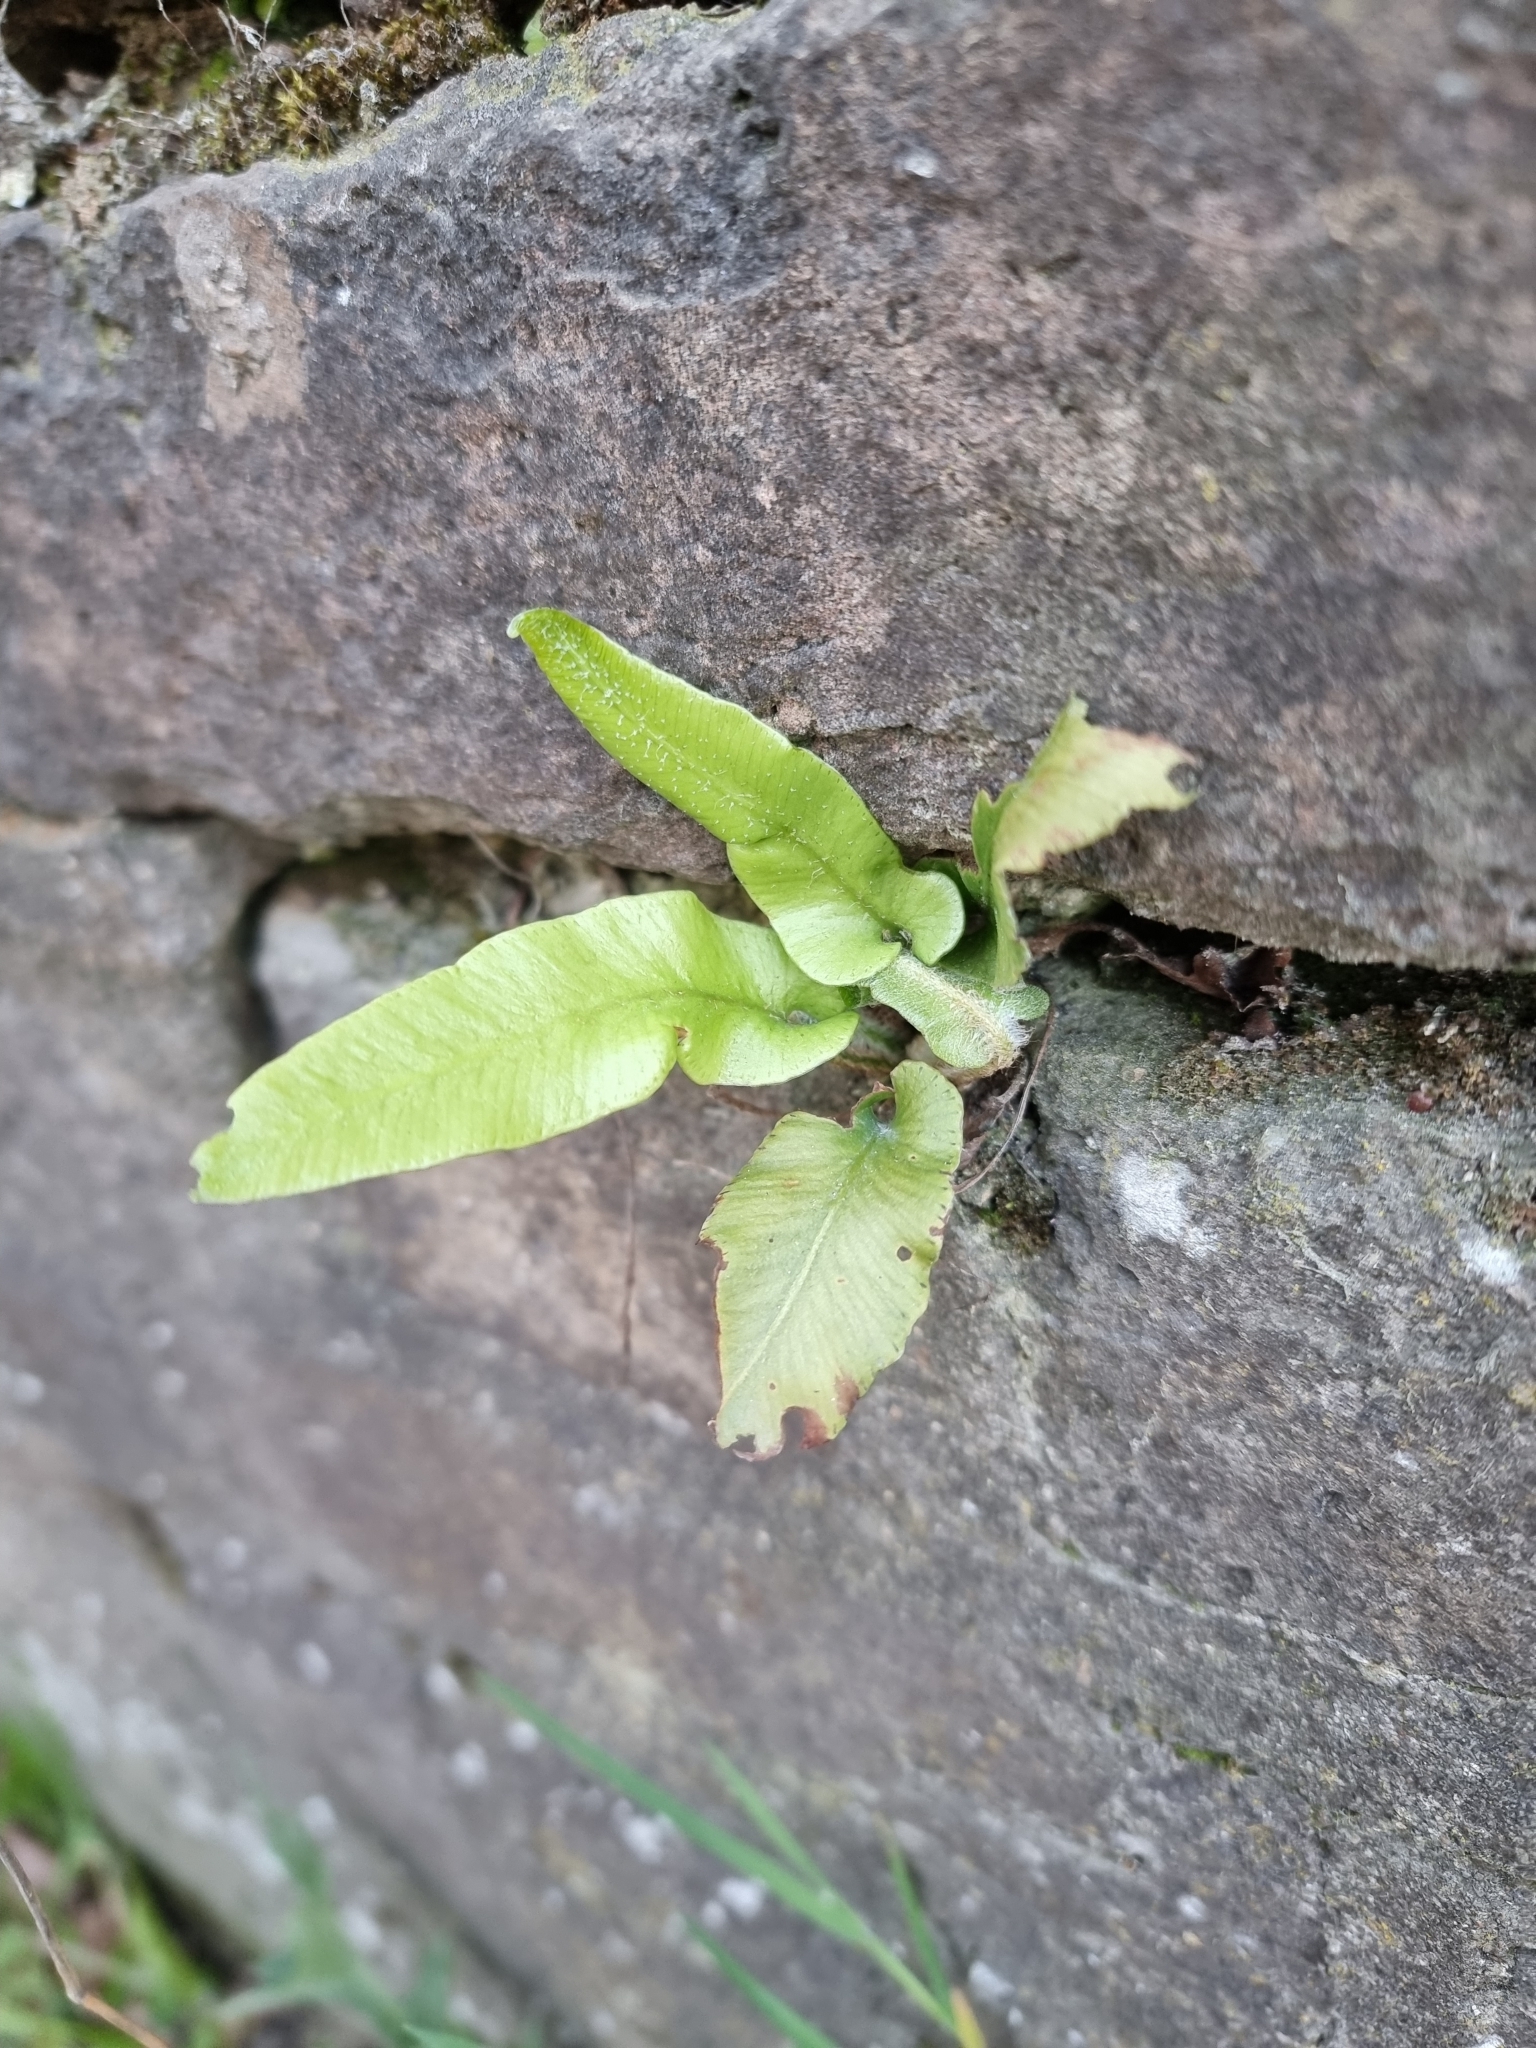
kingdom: Plantae
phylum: Tracheophyta
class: Polypodiopsida
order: Polypodiales
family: Aspleniaceae
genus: Asplenium
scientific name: Asplenium scolopendrium
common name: Hart's-tongue fern
